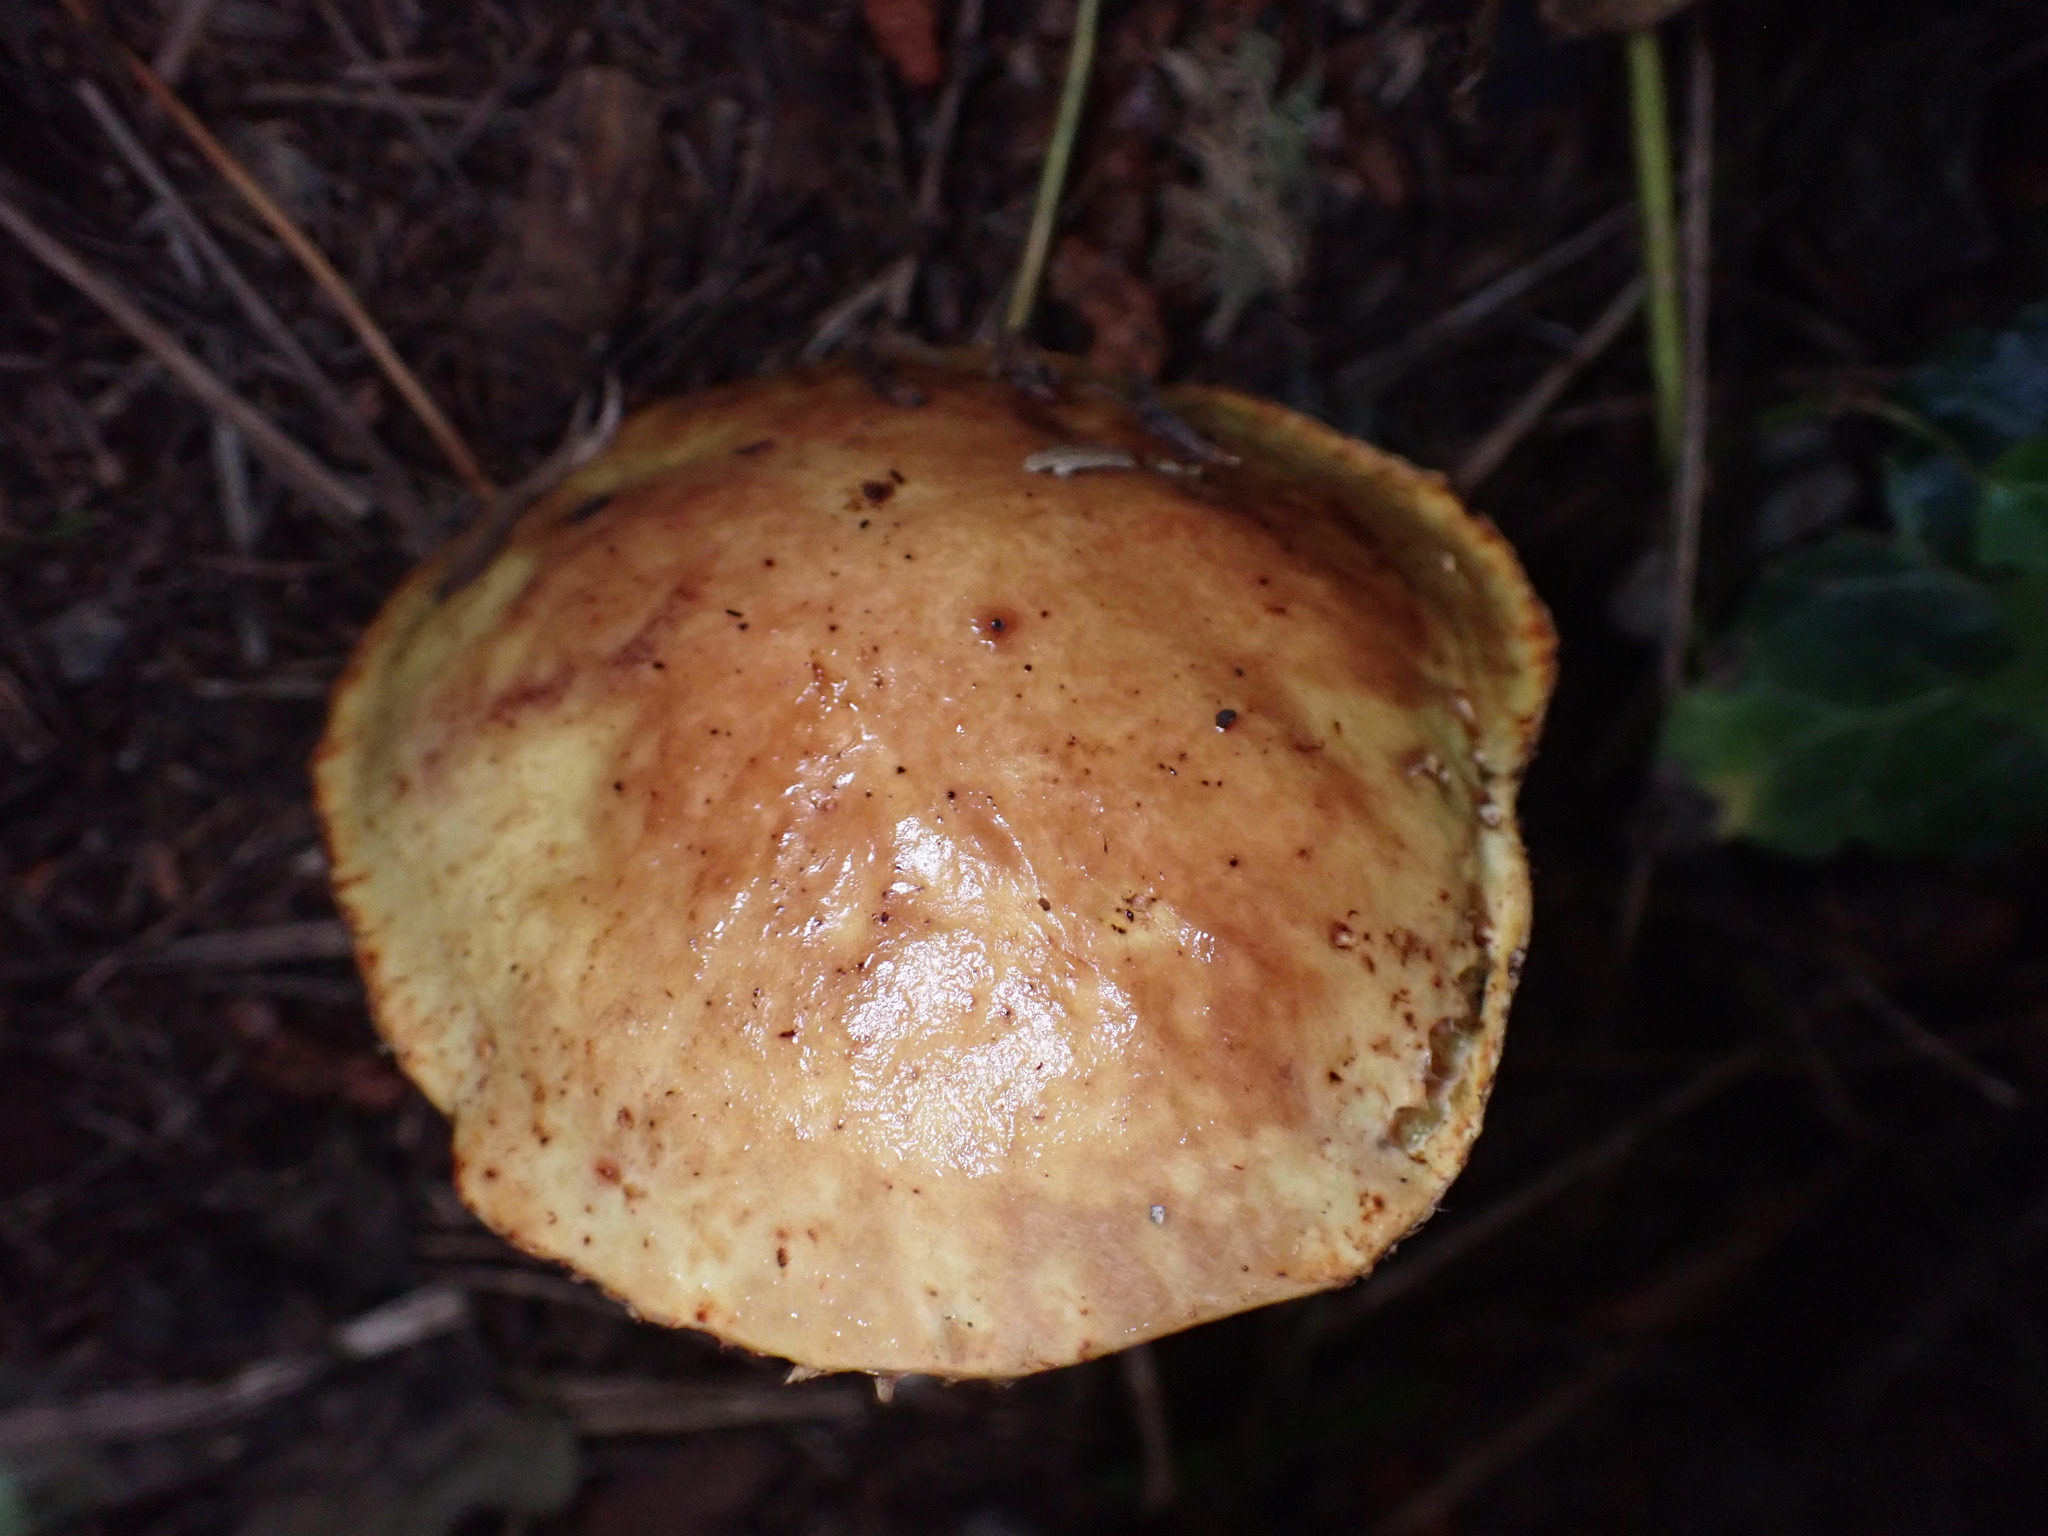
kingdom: Fungi
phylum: Basidiomycota
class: Agaricomycetes
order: Boletales
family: Suillaceae
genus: Suillus
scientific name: Suillus grevillei
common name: Larch bolete
